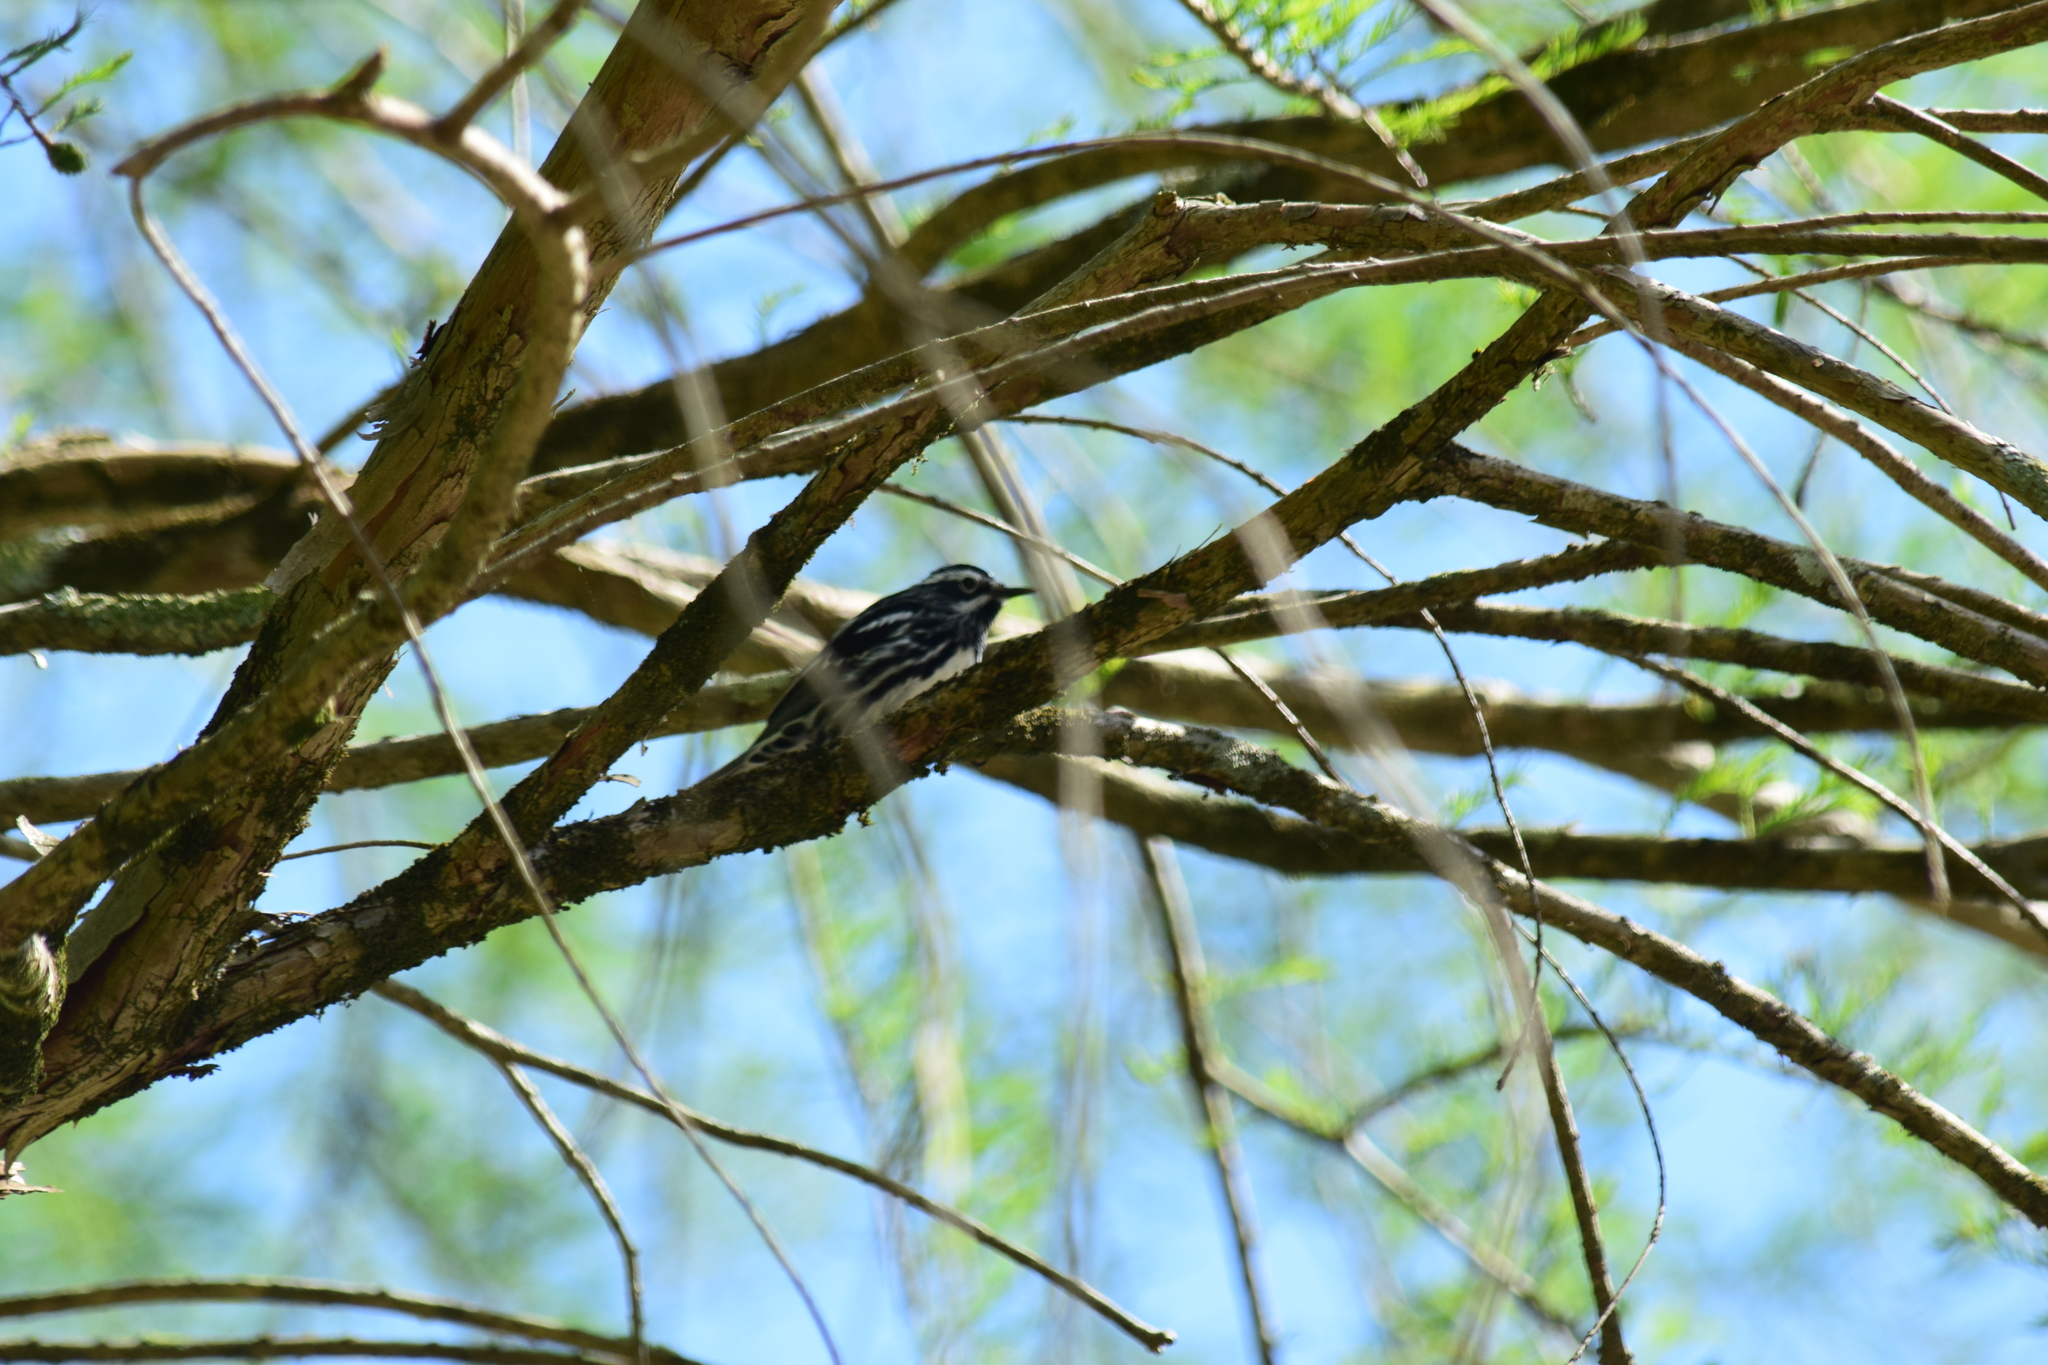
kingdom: Animalia
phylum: Chordata
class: Aves
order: Passeriformes
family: Parulidae
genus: Mniotilta
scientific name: Mniotilta varia
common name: Black-and-white warbler
